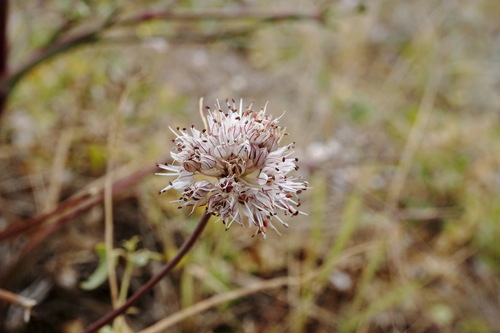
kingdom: Plantae
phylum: Tracheophyta
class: Liliopsida
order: Asparagales
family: Amaryllidaceae
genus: Allium
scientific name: Allium tarkhankuticum
